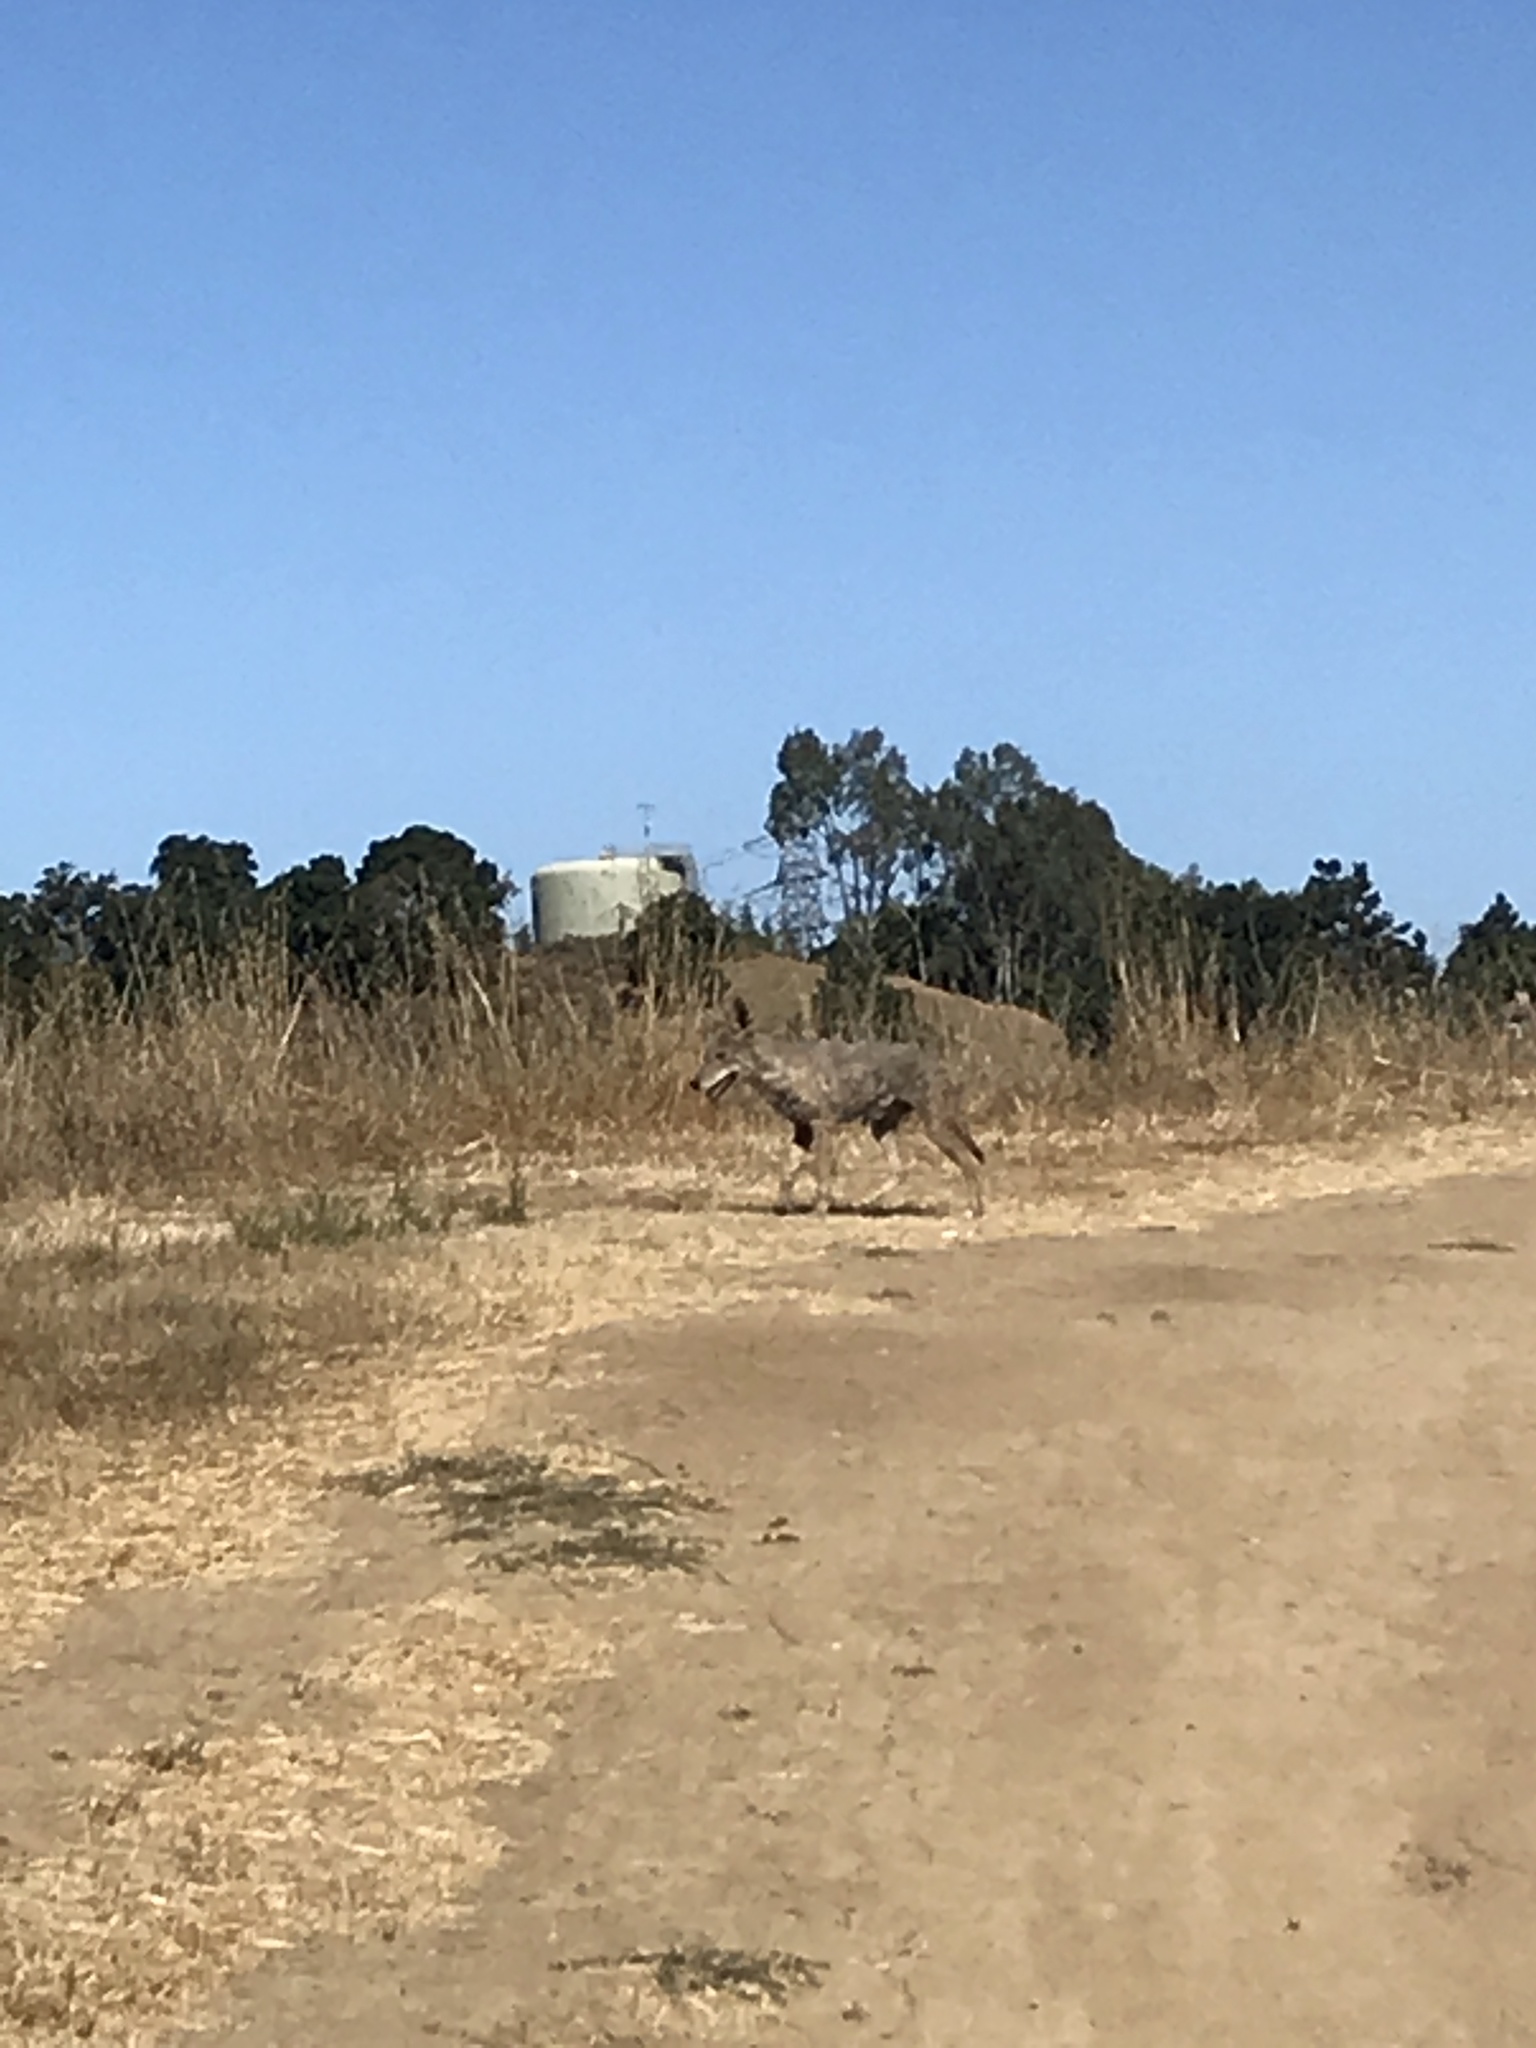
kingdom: Animalia
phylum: Chordata
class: Mammalia
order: Carnivora
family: Canidae
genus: Canis
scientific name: Canis latrans
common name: Coyote
